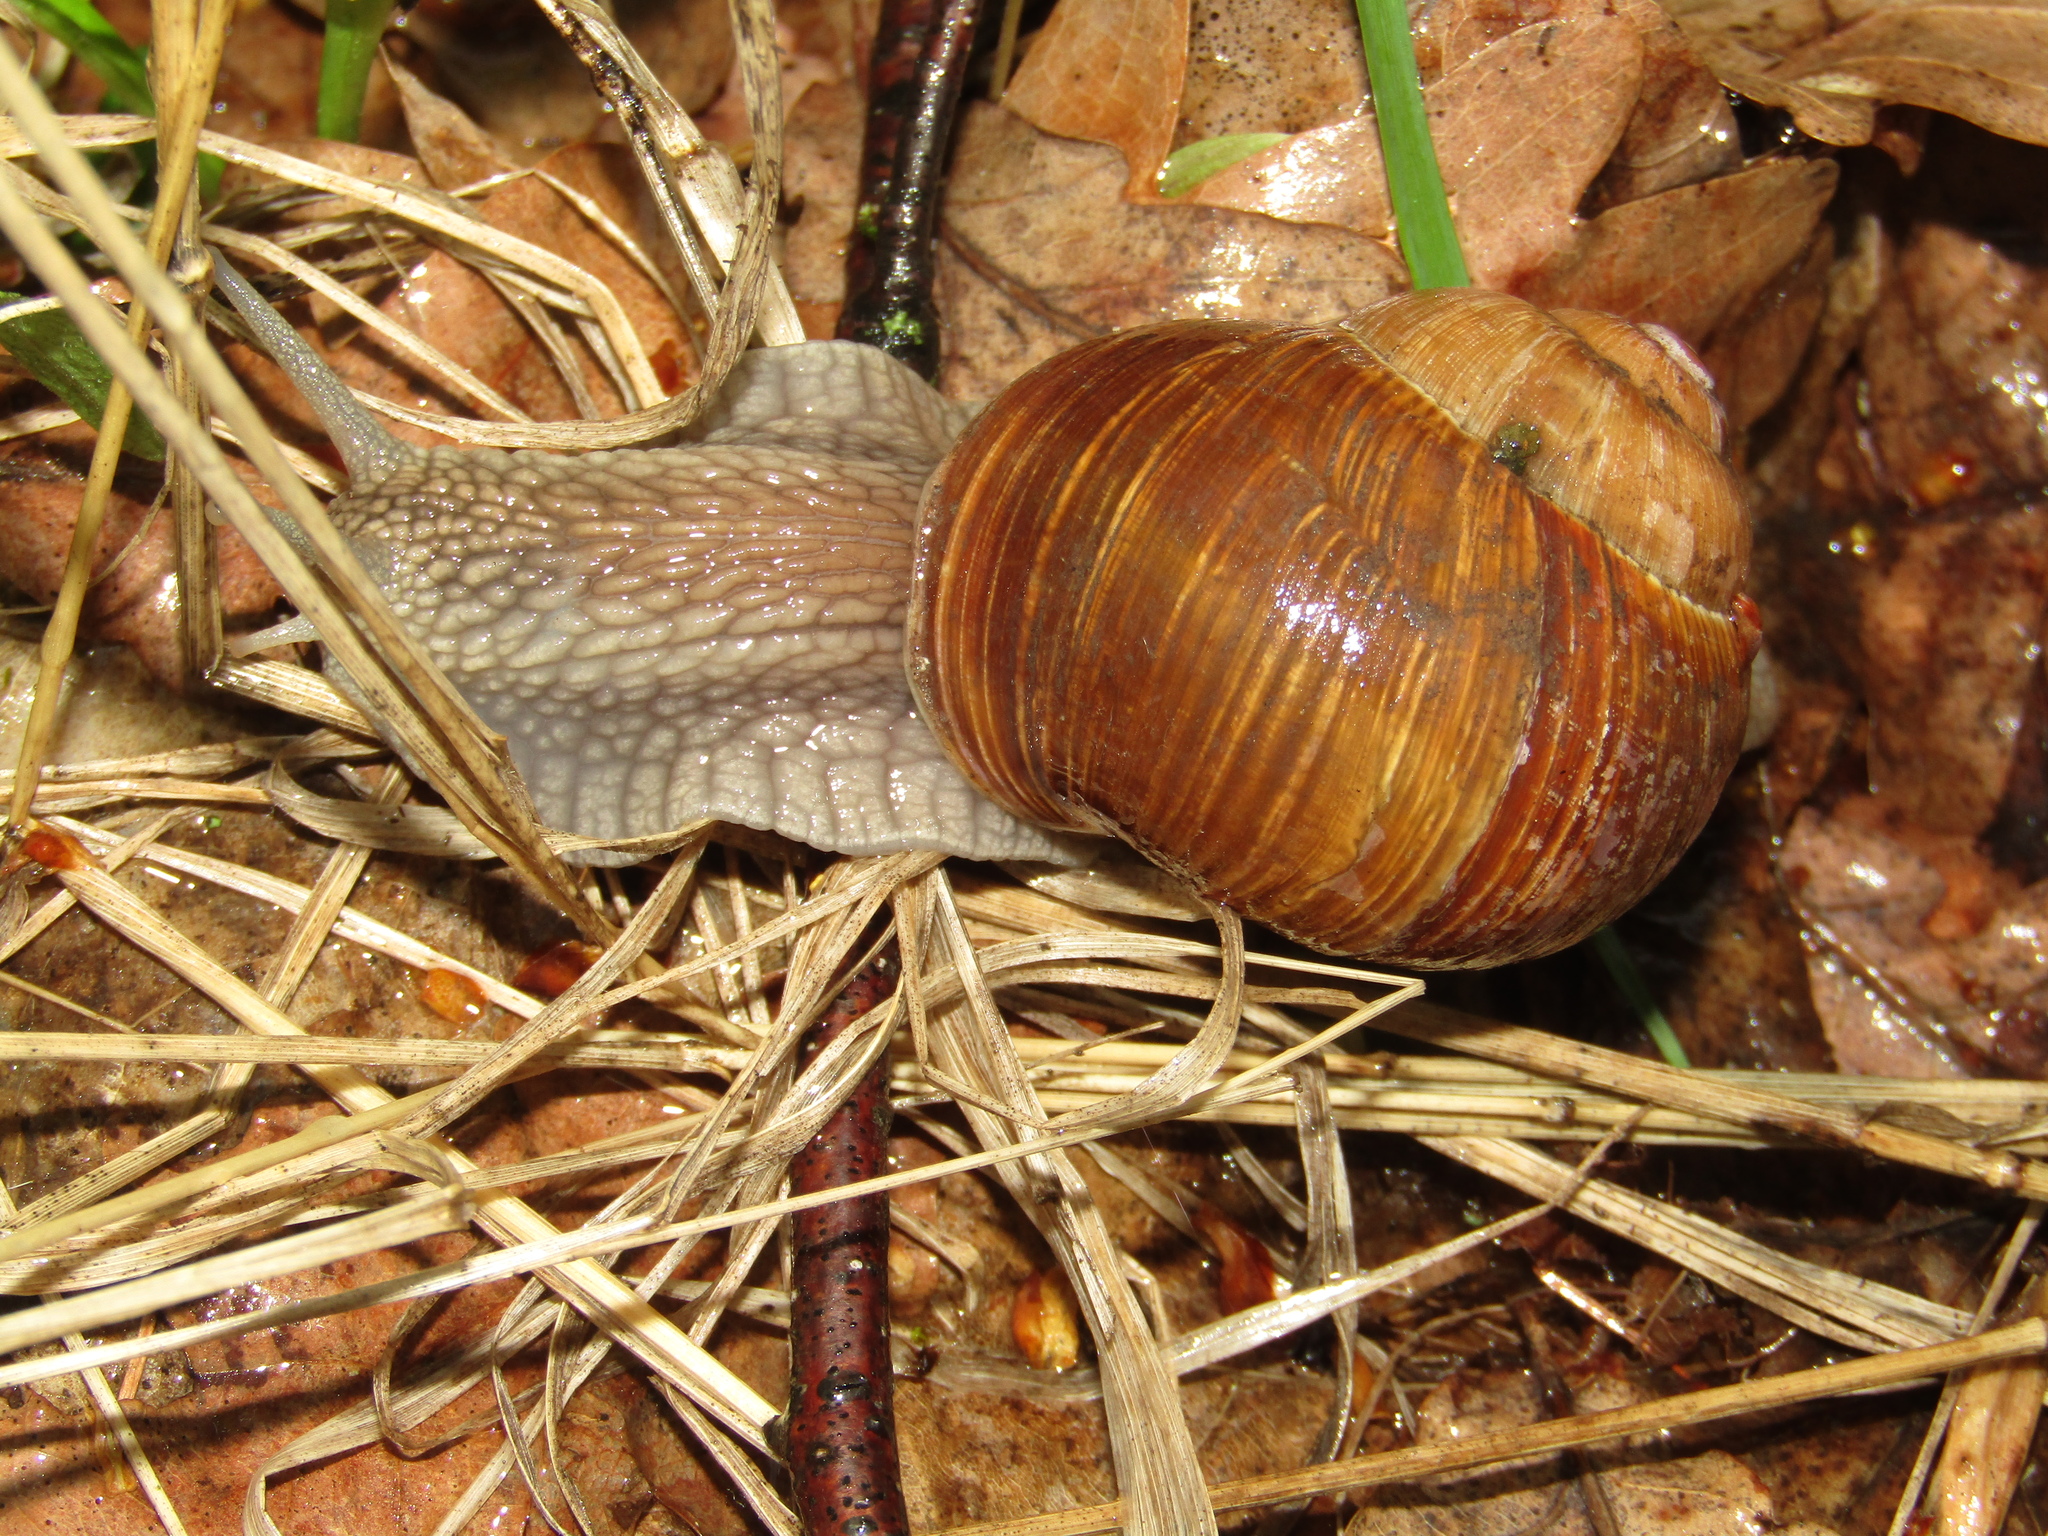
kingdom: Animalia
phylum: Mollusca
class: Gastropoda
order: Stylommatophora
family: Helicidae
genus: Helix
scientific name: Helix pomatia
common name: Roman snail
